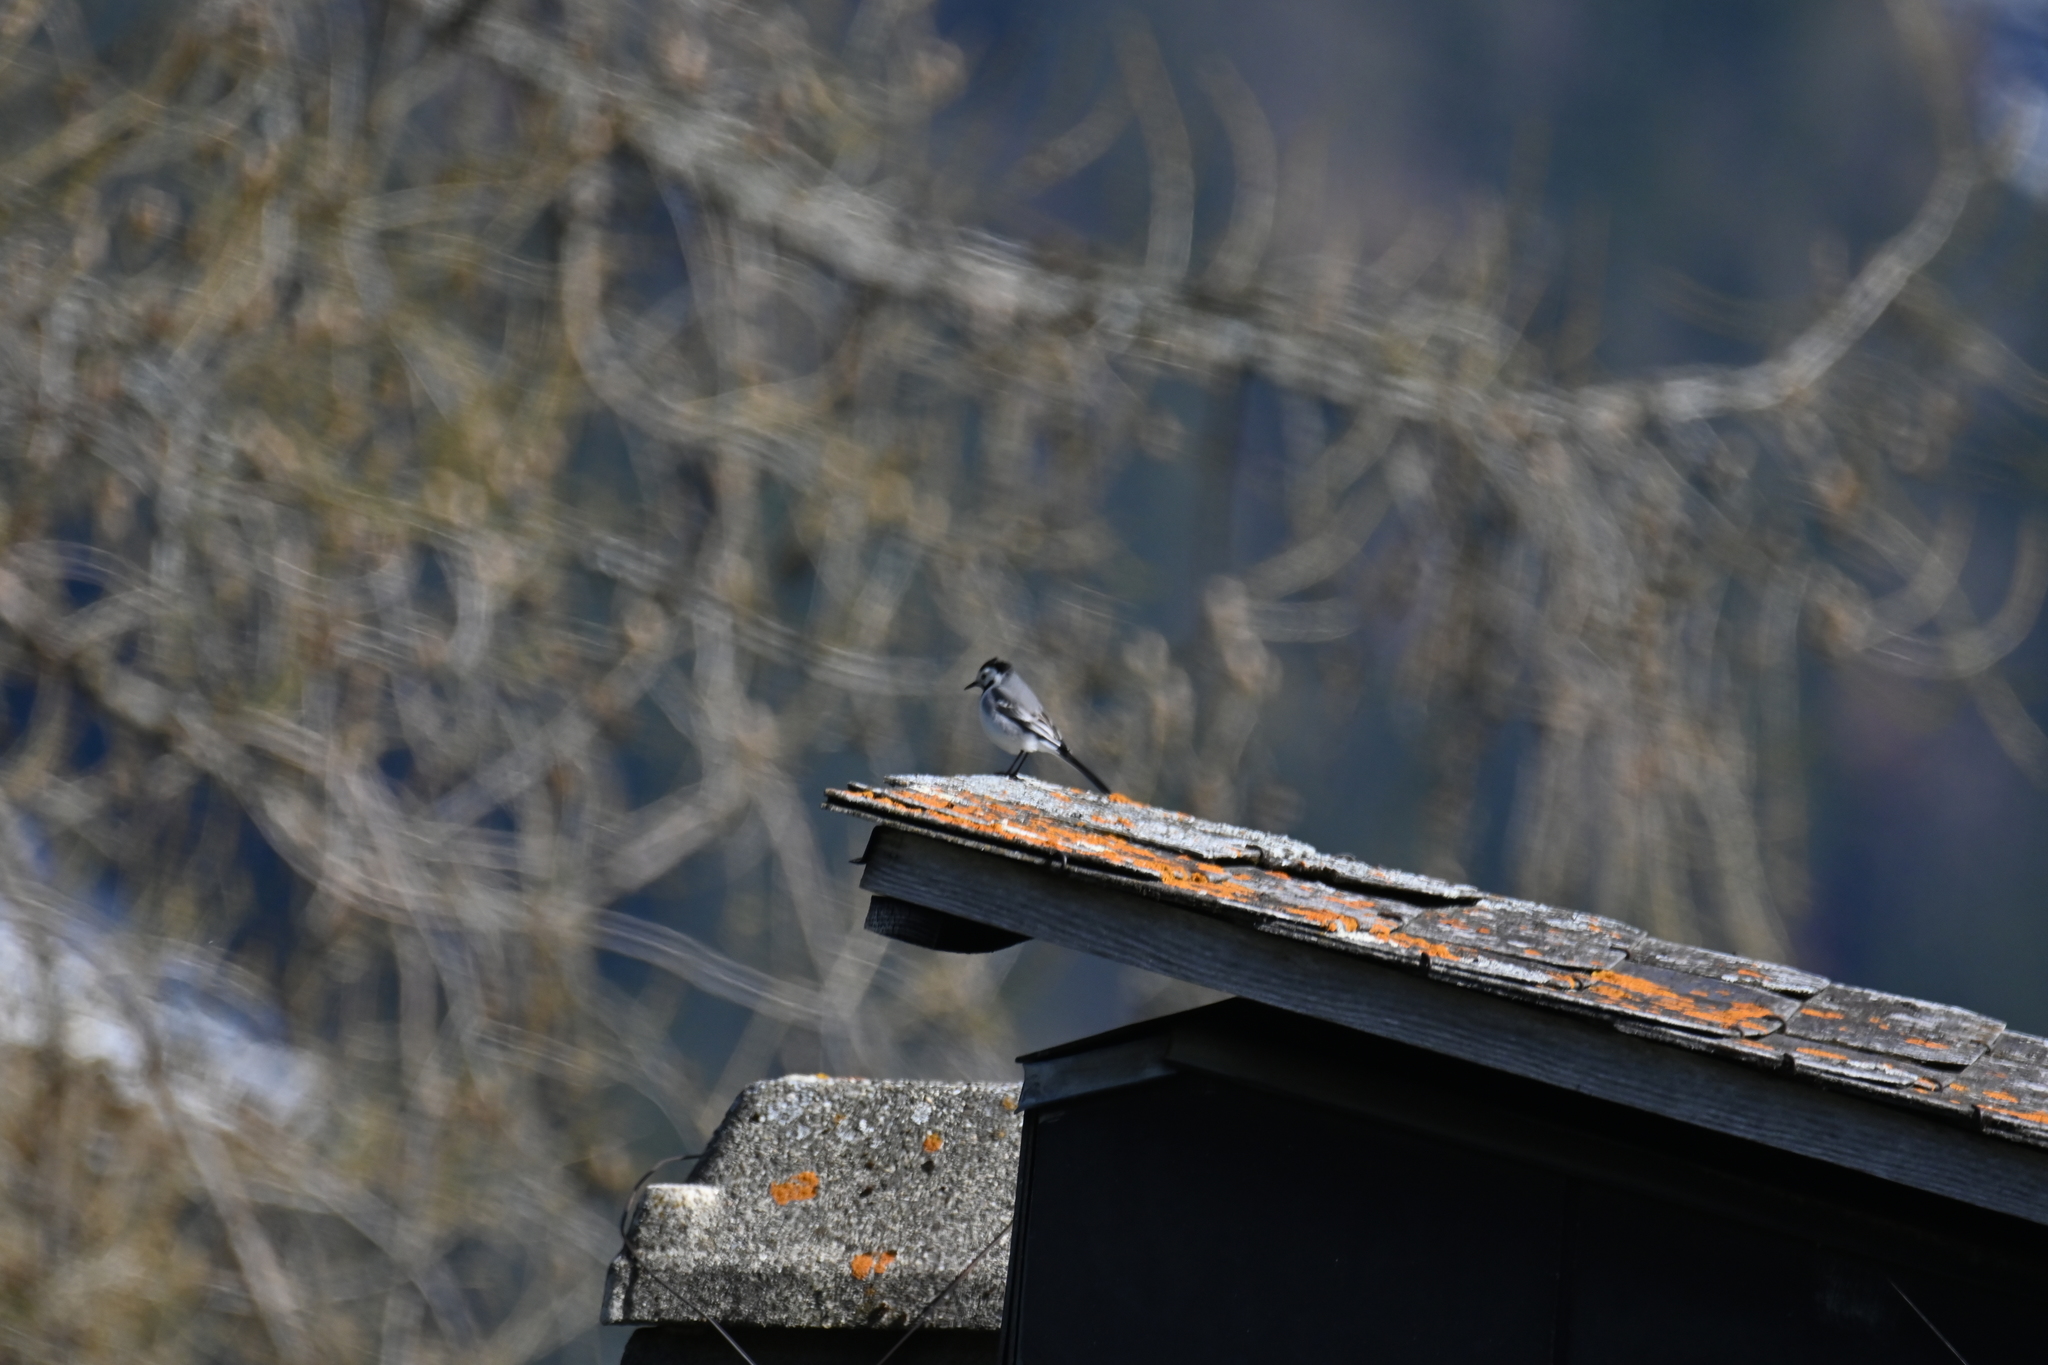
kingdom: Animalia
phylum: Chordata
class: Aves
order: Passeriformes
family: Motacillidae
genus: Motacilla
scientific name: Motacilla alba
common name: White wagtail
